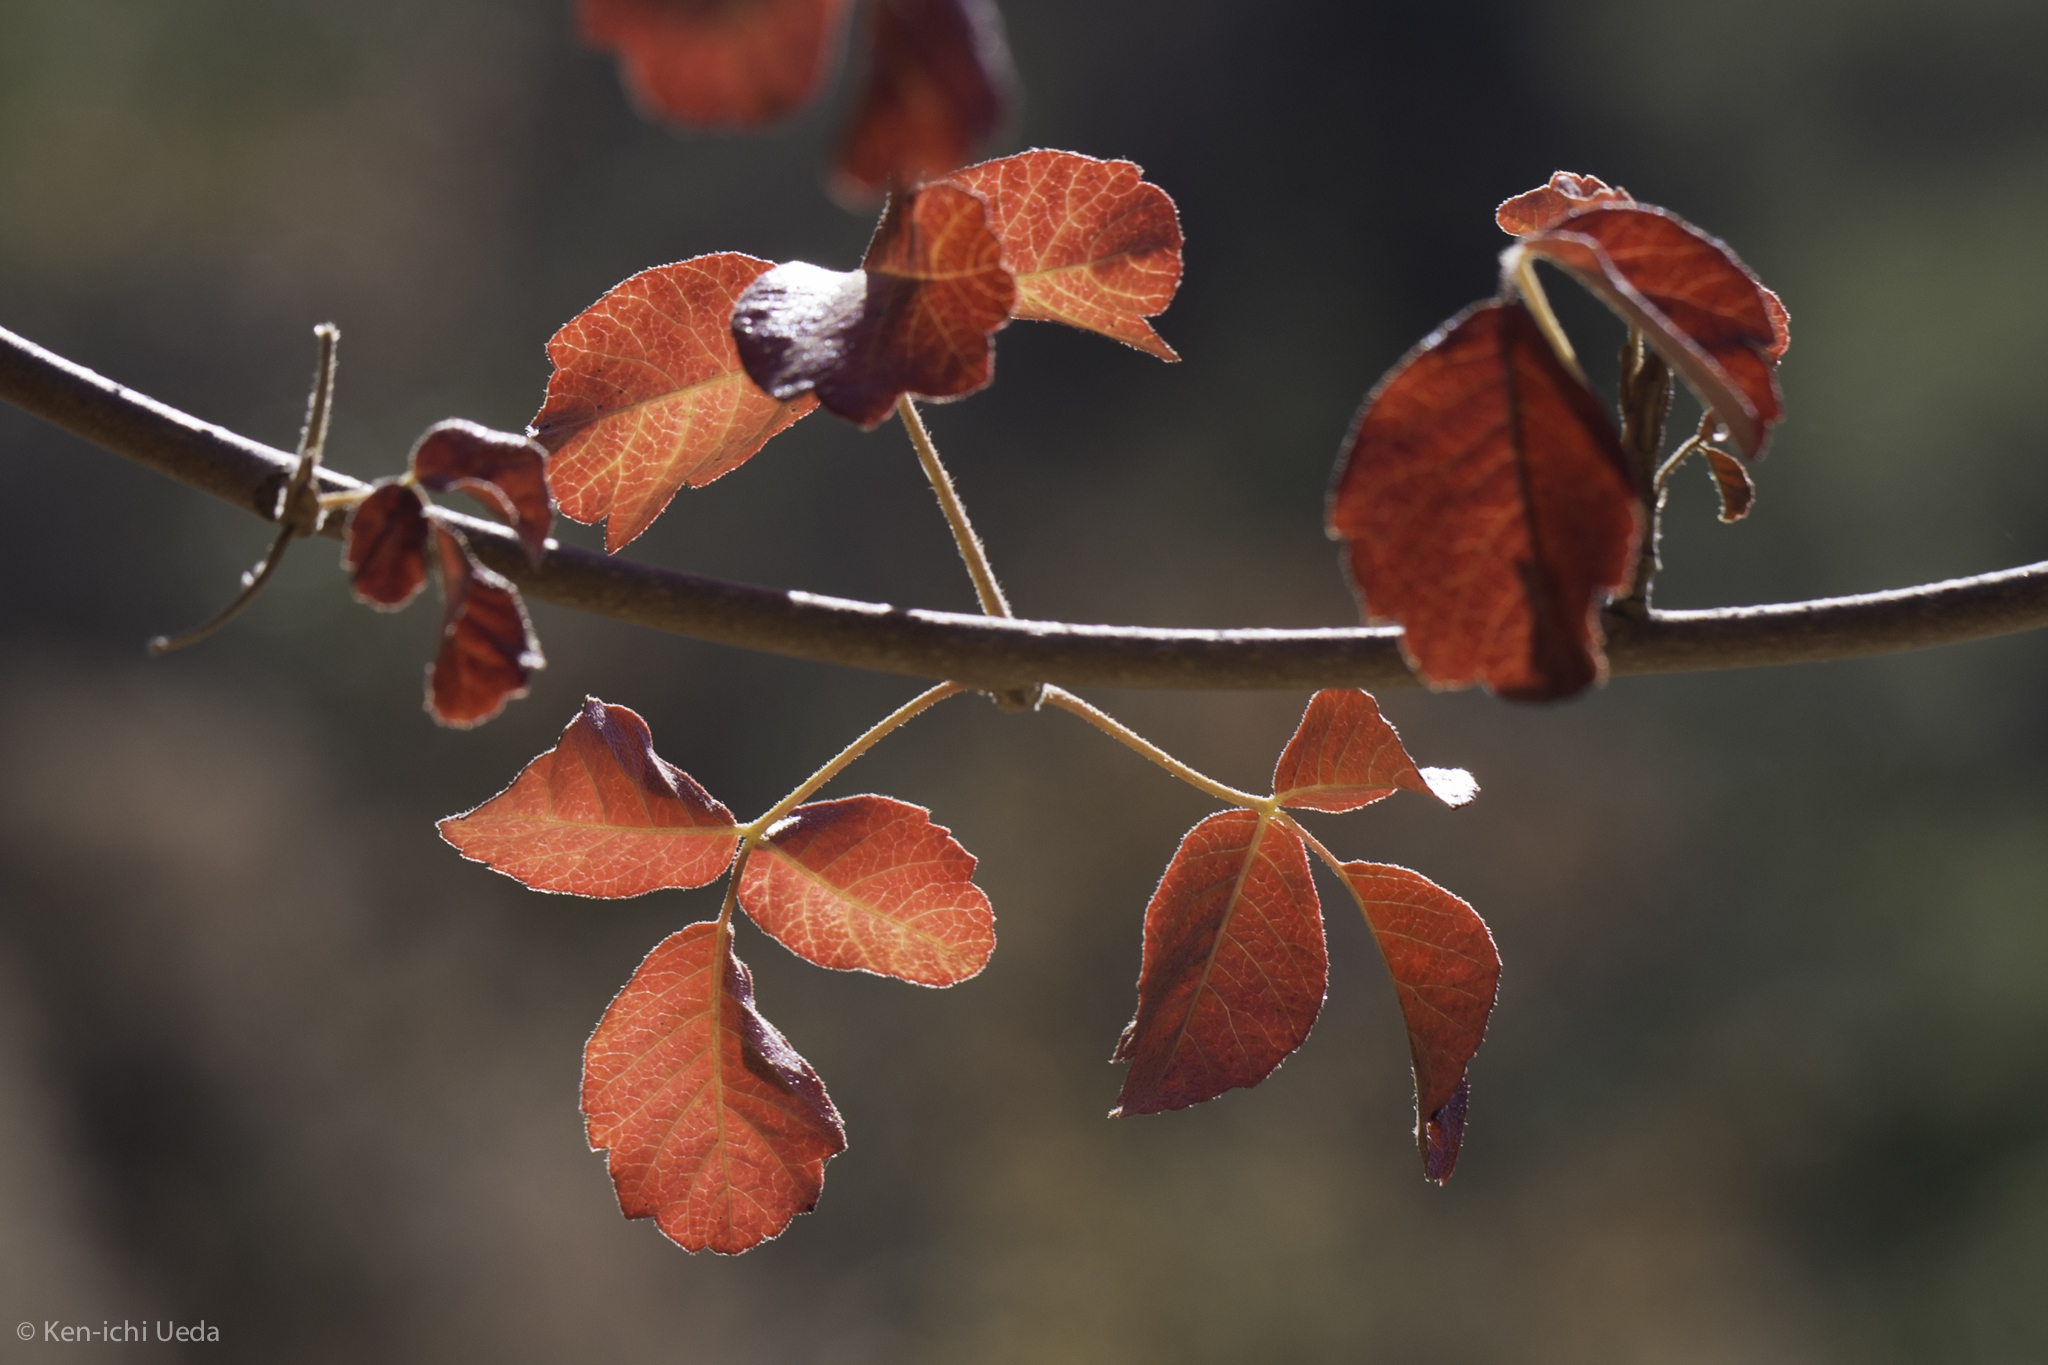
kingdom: Plantae
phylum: Tracheophyta
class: Magnoliopsida
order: Sapindales
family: Anacardiaceae
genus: Toxicodendron
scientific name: Toxicodendron diversilobum
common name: Pacific poison-oak
